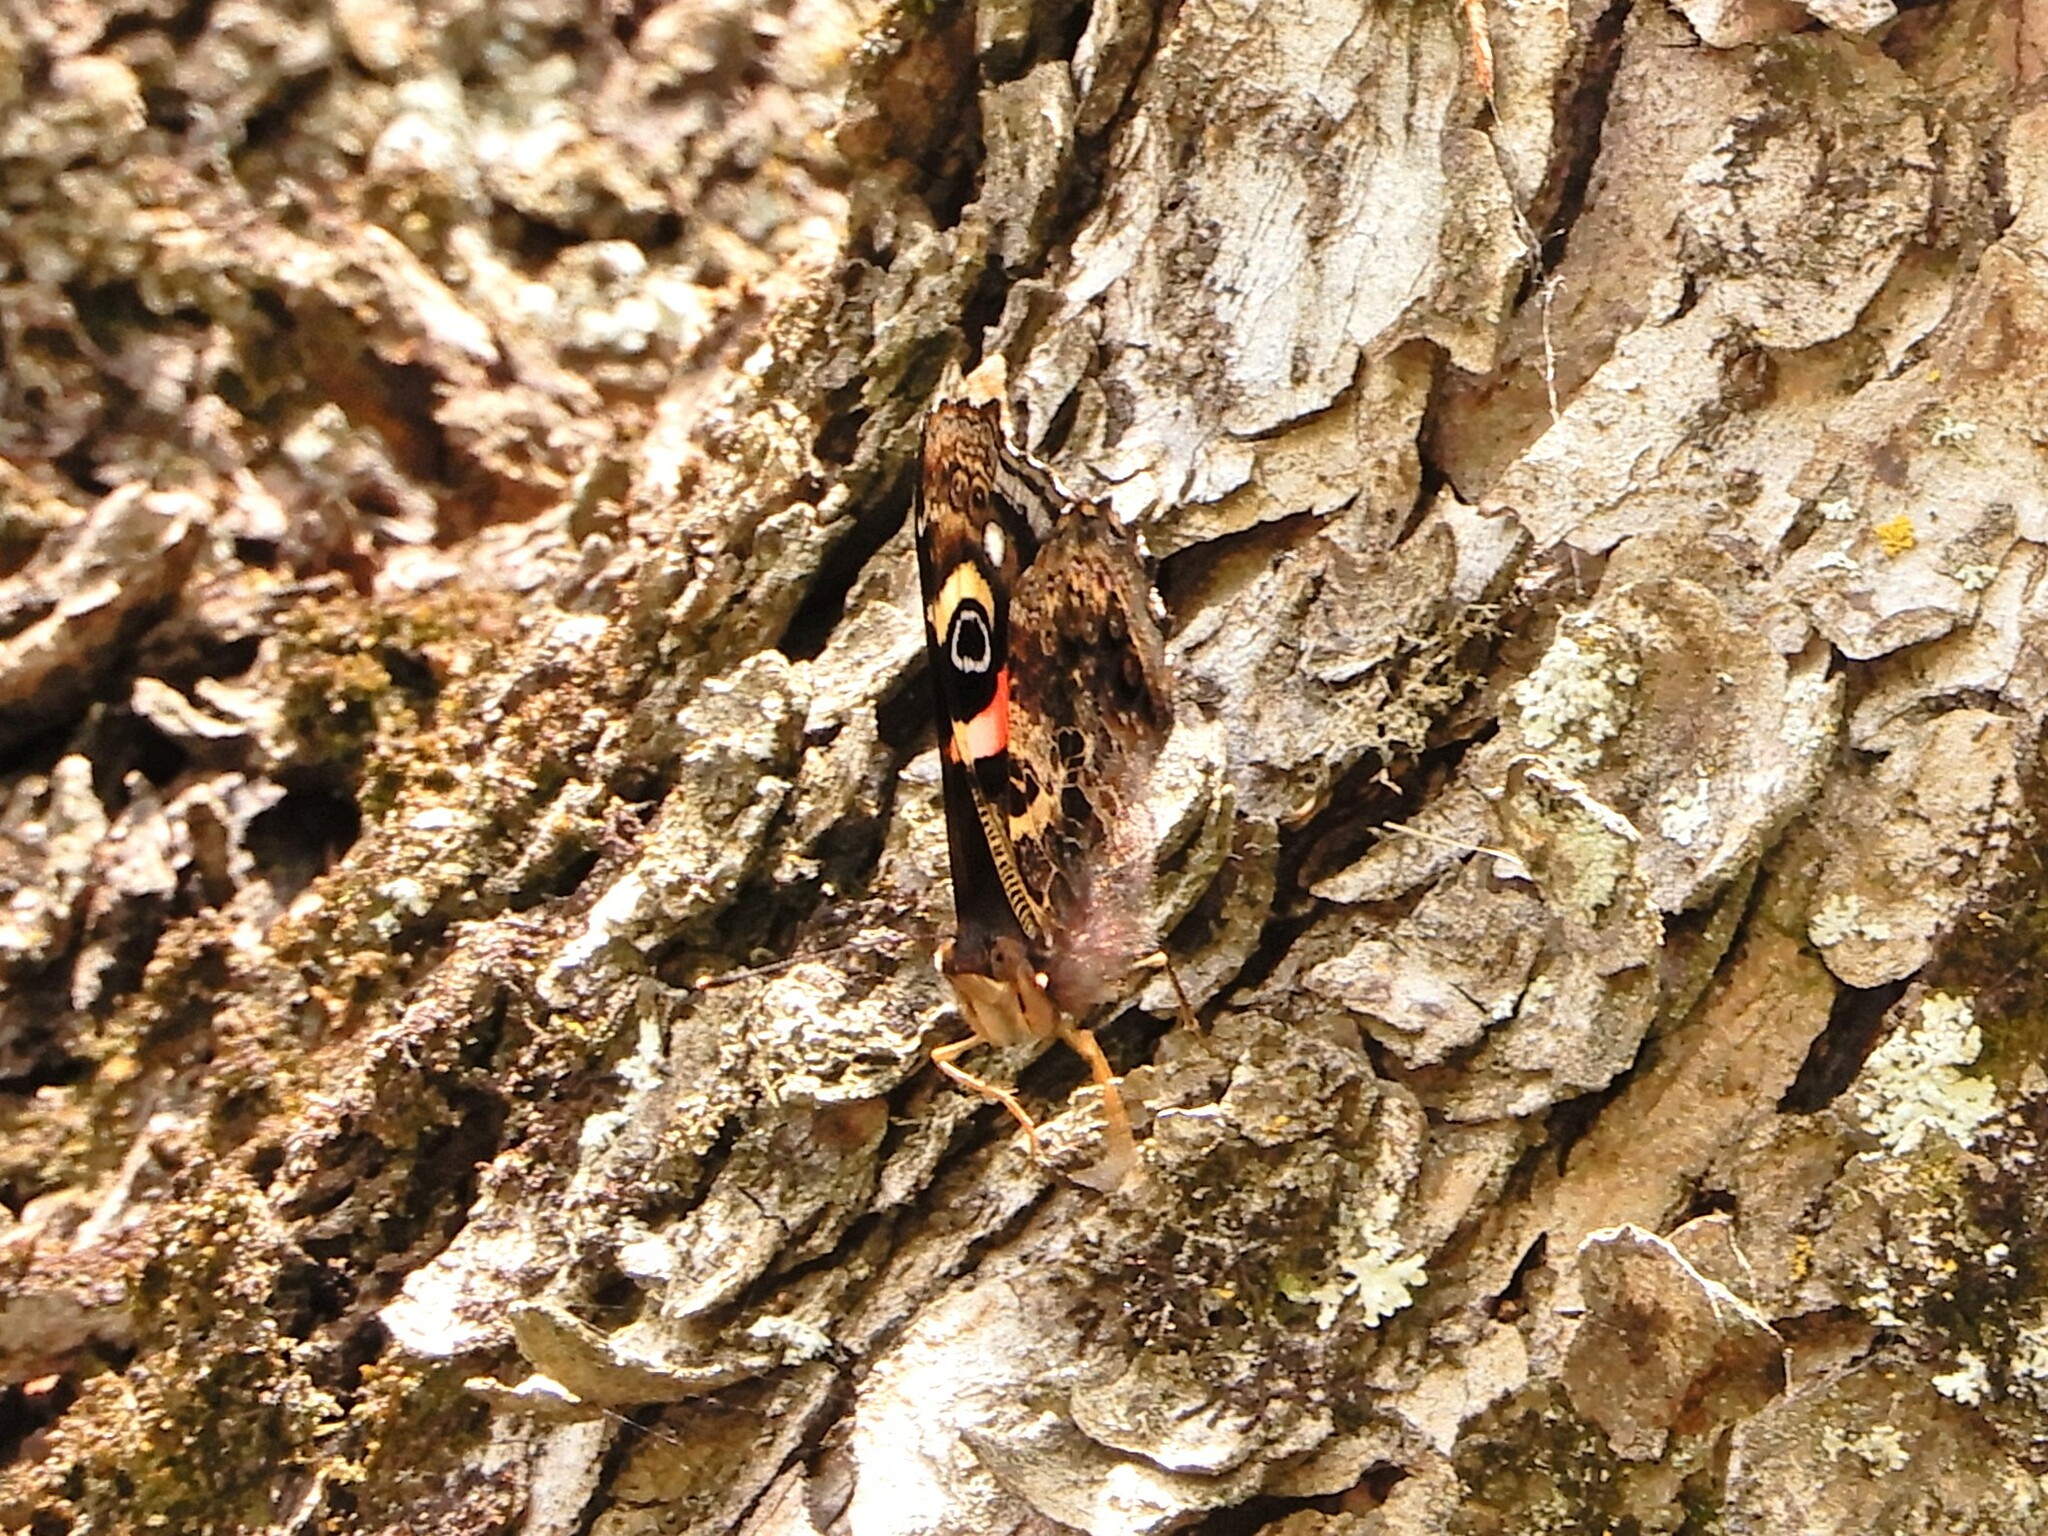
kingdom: Animalia
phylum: Arthropoda
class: Insecta
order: Lepidoptera
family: Nymphalidae
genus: Vanessa
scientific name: Vanessa gonerilla
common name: New zealand red admiral
